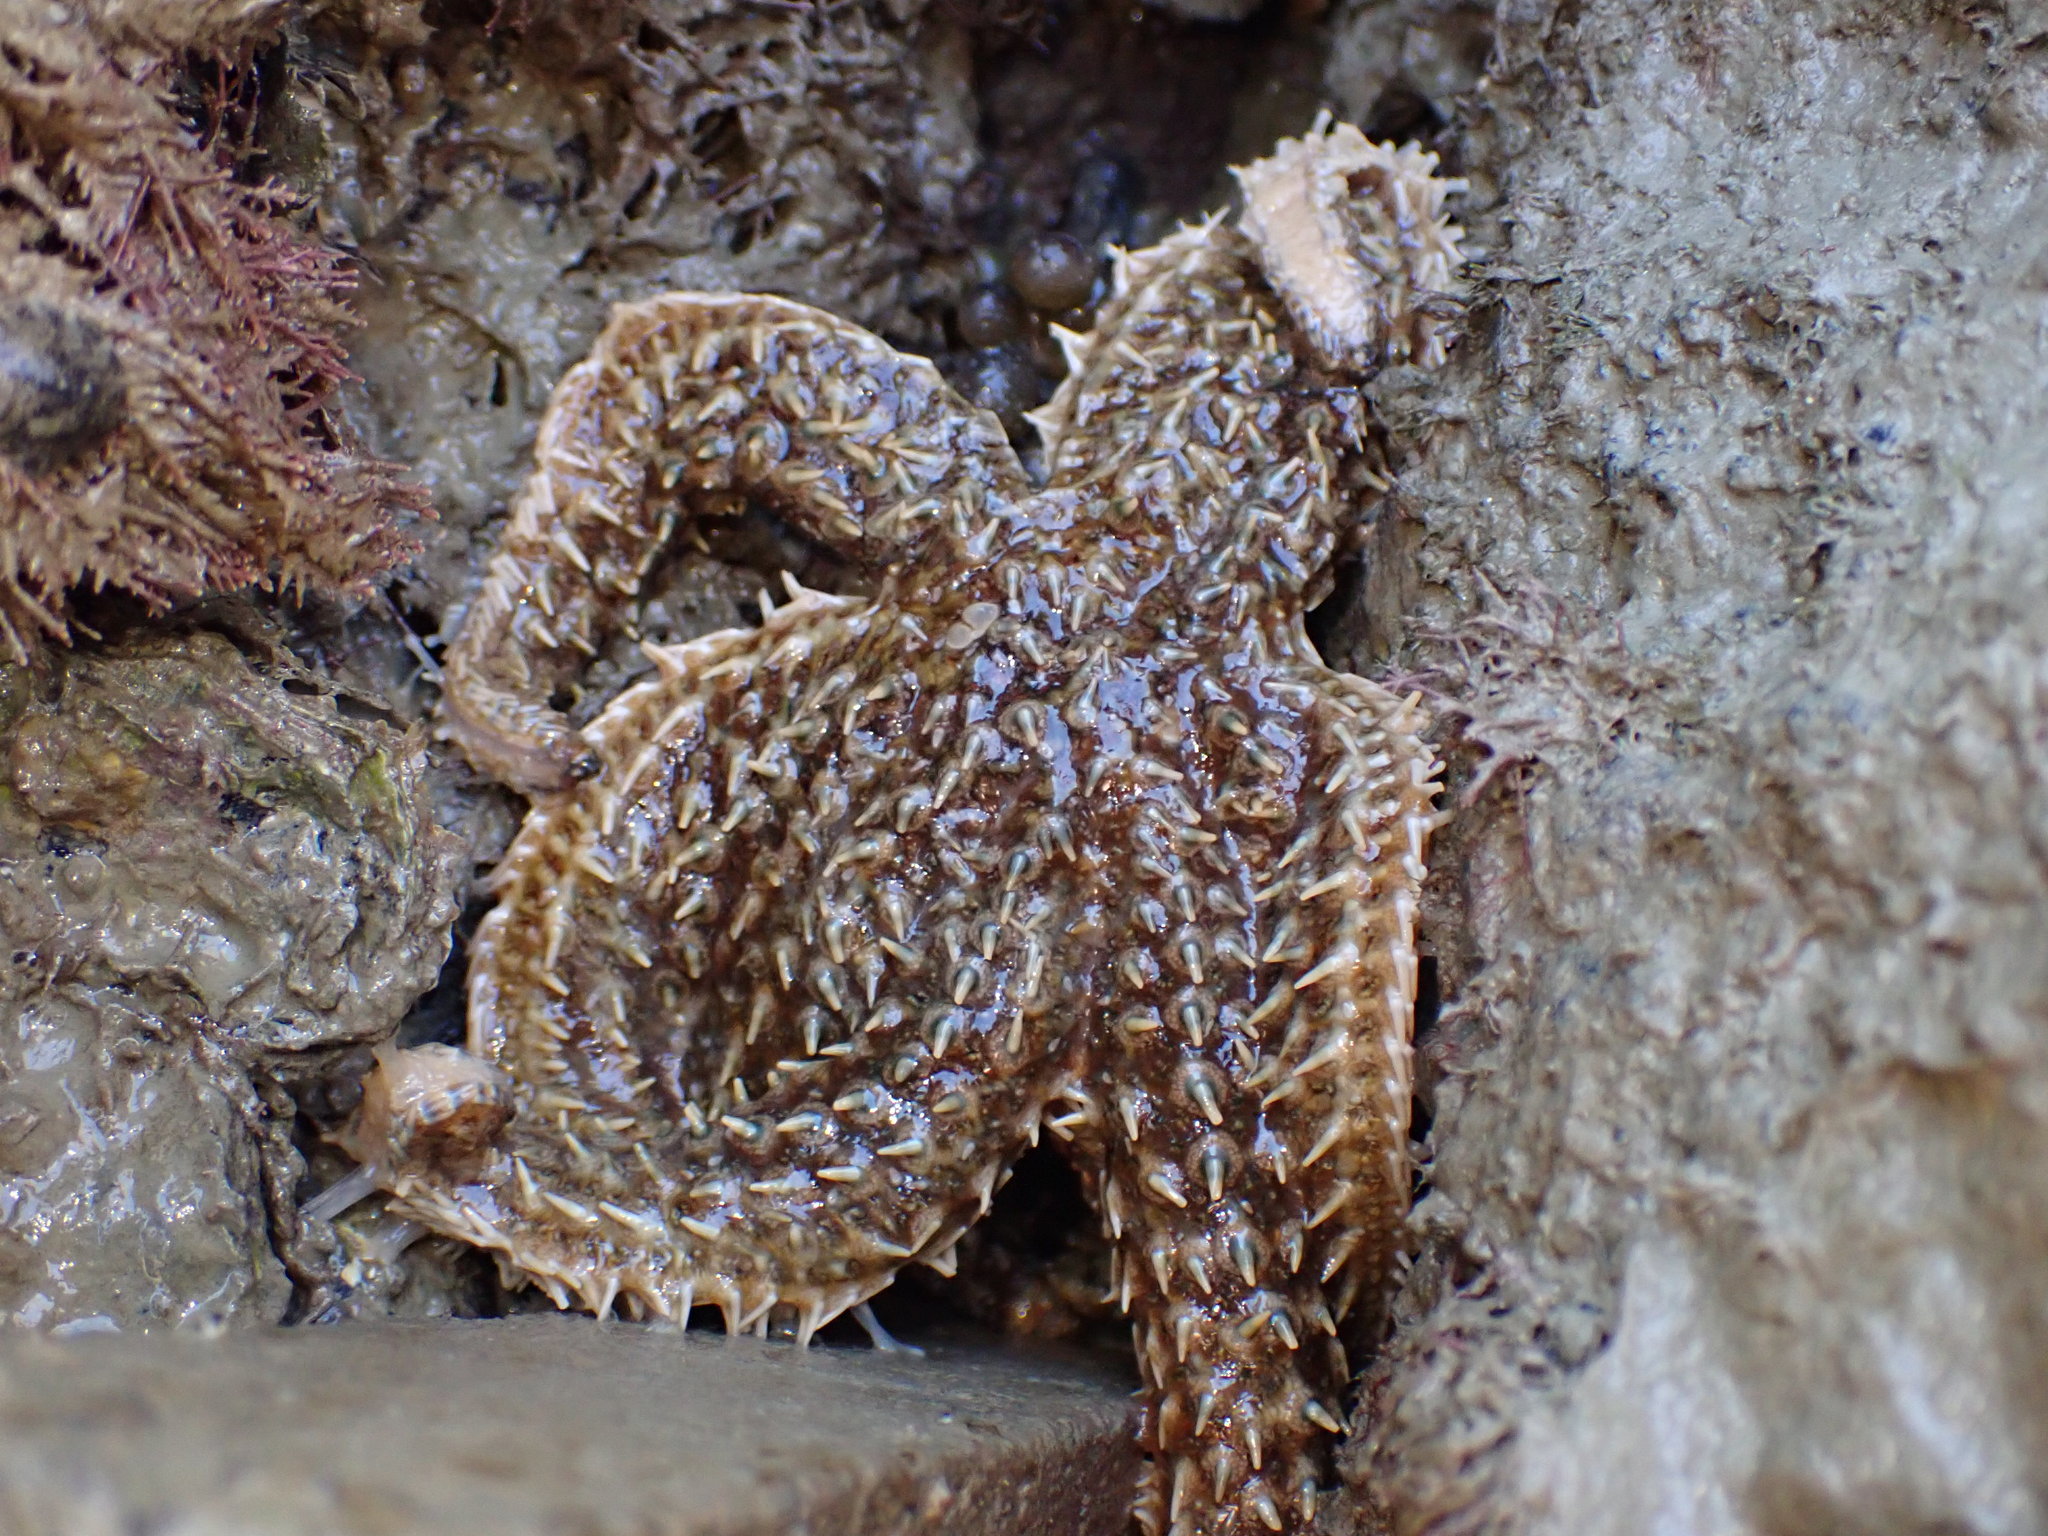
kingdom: Animalia
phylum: Echinodermata
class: Asteroidea
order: Forcipulatida
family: Asteriidae
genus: Coscinasterias
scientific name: Coscinasterias muricata
